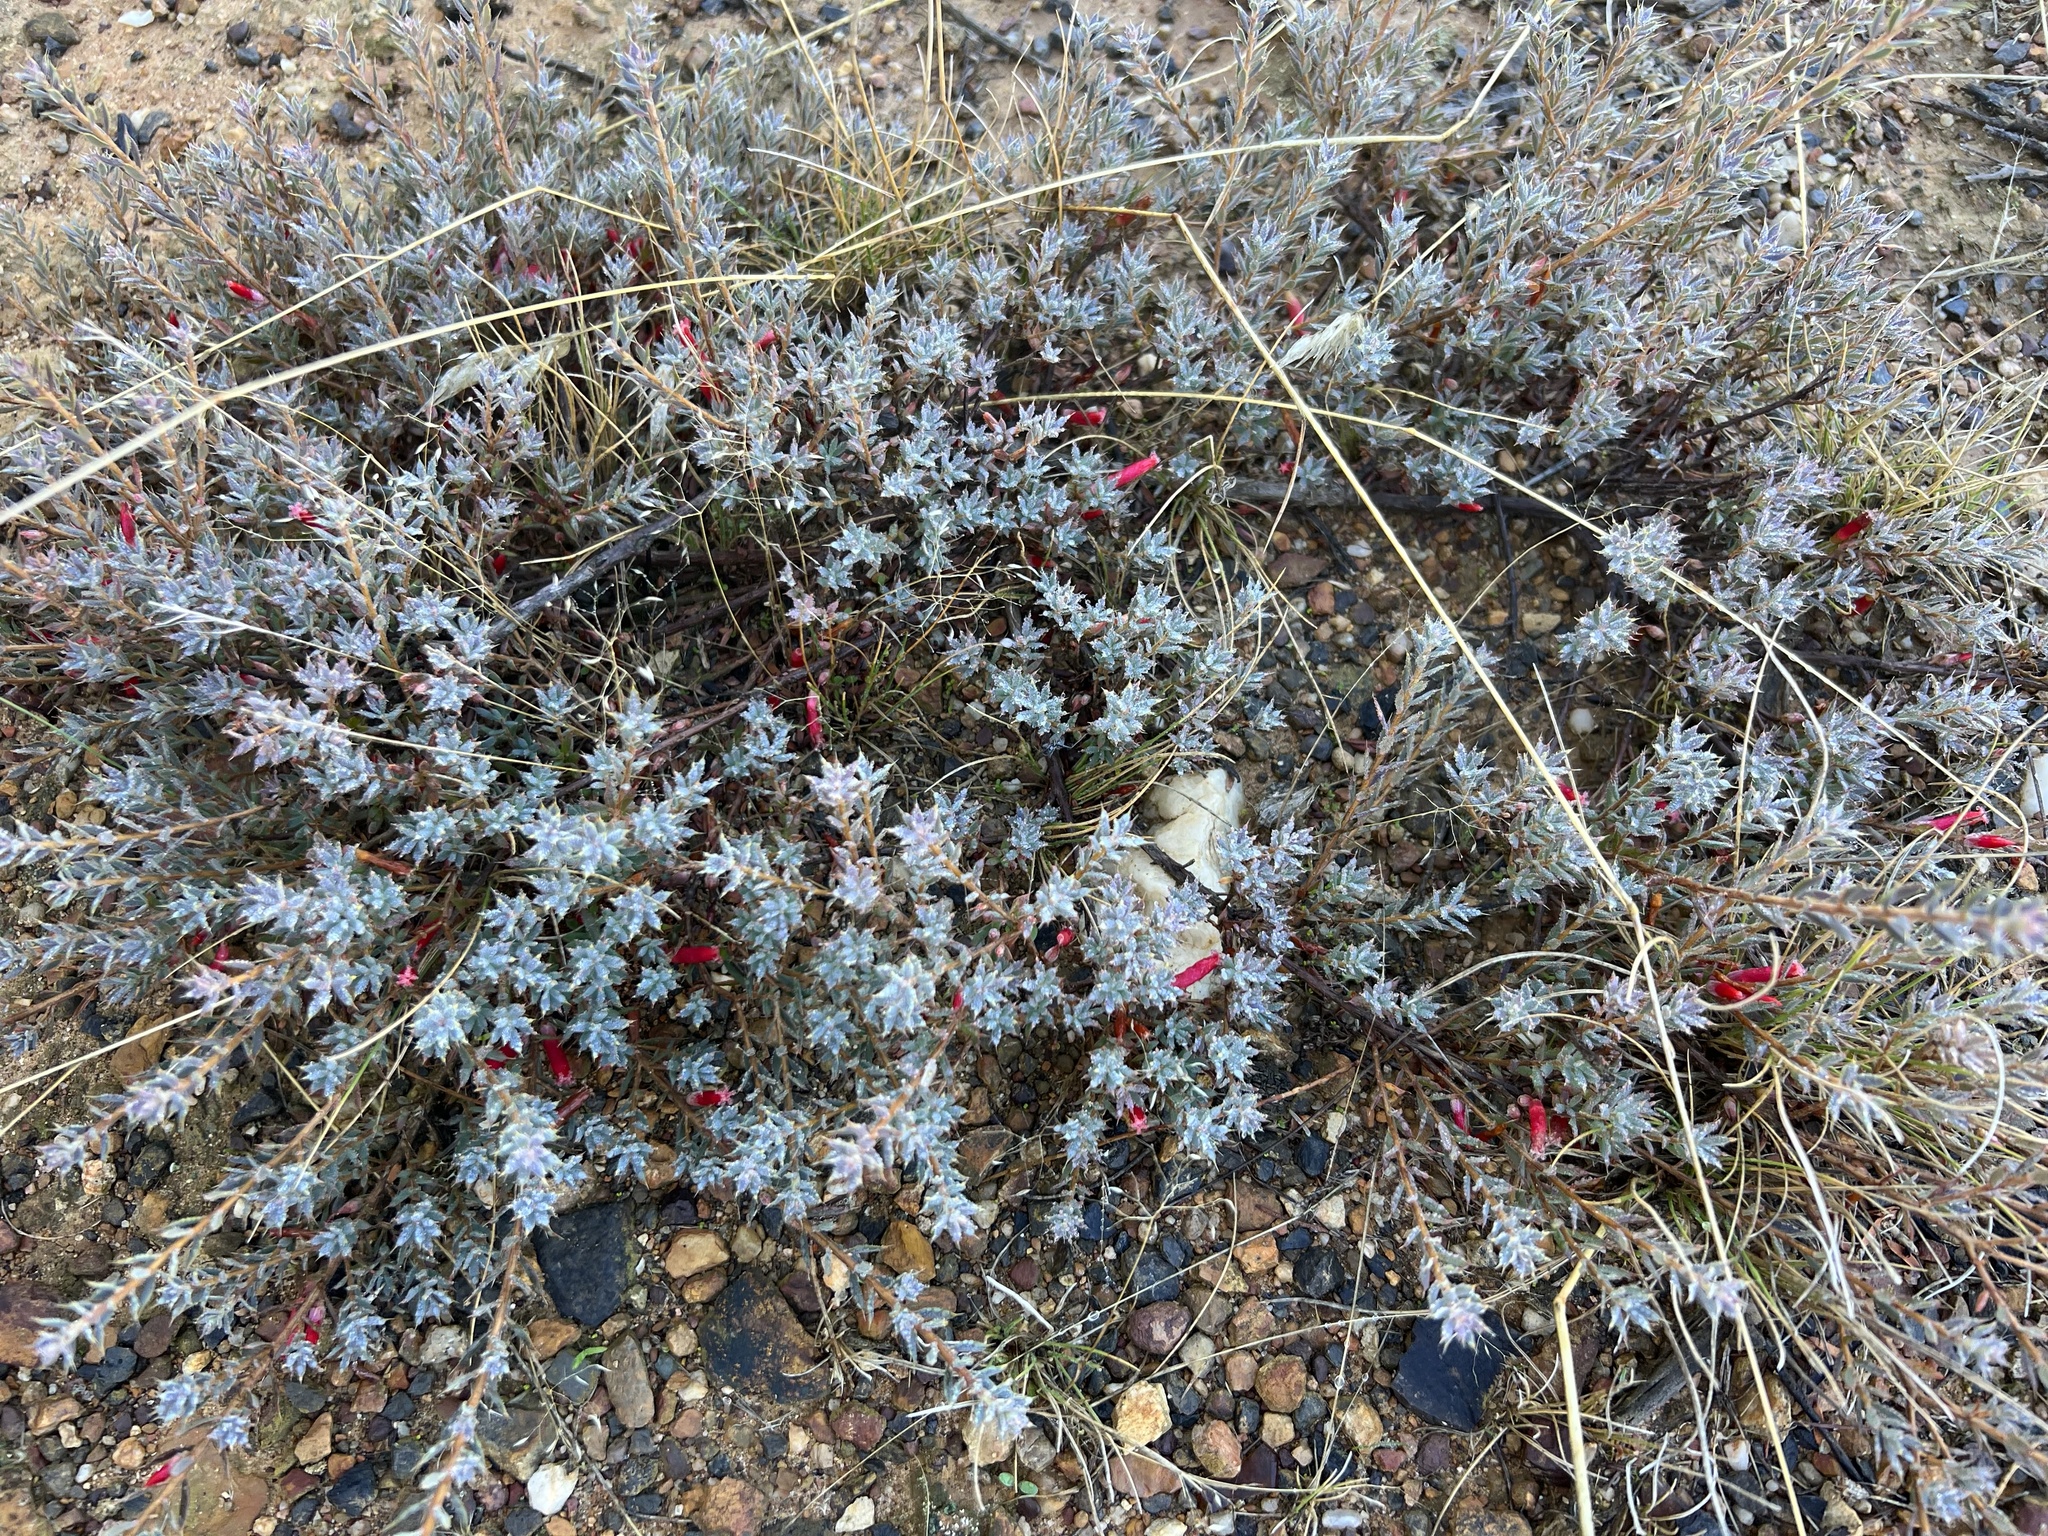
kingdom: Plantae
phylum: Tracheophyta
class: Magnoliopsida
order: Ericales
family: Ericaceae
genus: Styphelia
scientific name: Styphelia humifusa
